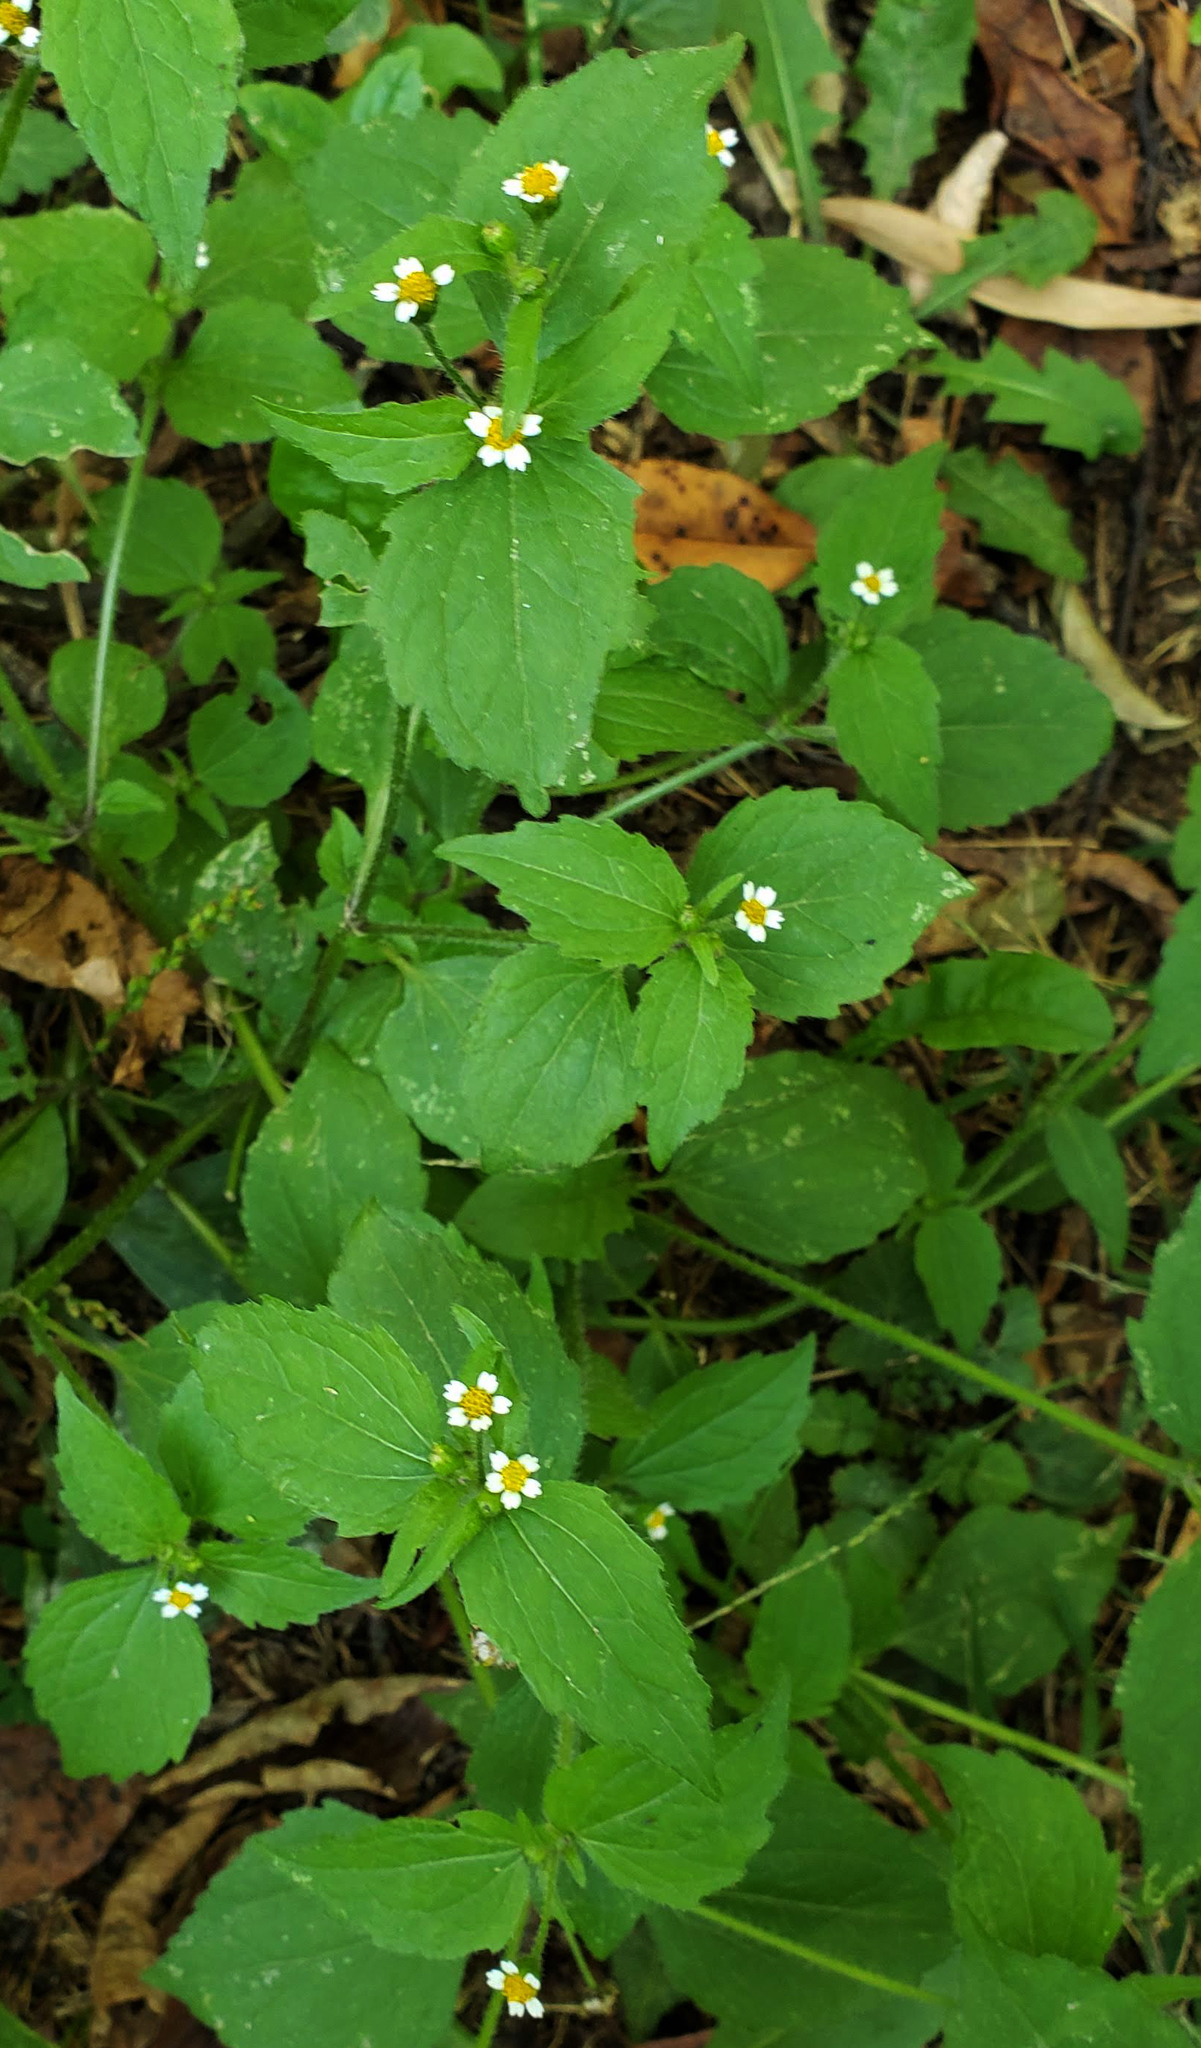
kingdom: Plantae
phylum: Tracheophyta
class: Magnoliopsida
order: Asterales
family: Asteraceae
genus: Galinsoga
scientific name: Galinsoga quadriradiata
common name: Shaggy soldier
